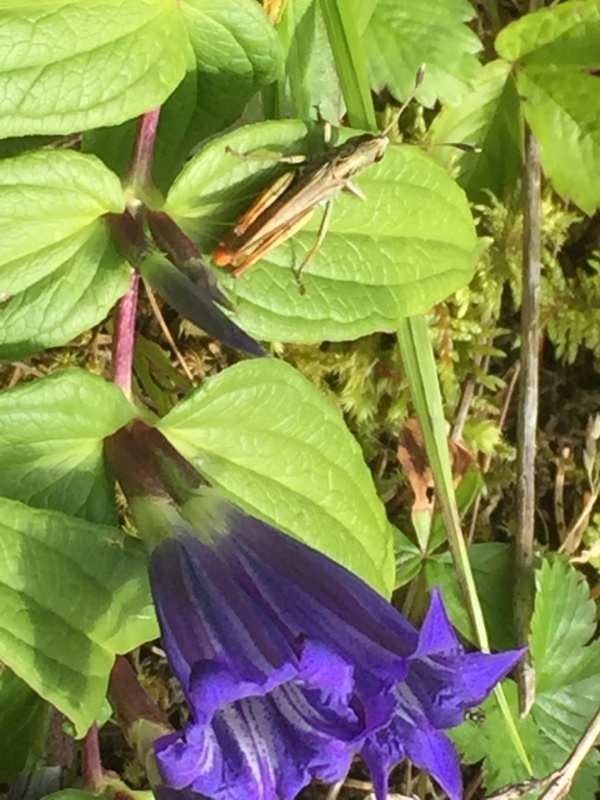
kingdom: Animalia
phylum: Arthropoda
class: Insecta
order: Orthoptera
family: Acrididae
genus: Gomphocerippus
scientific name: Gomphocerippus rufus
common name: Rufous grasshopper
